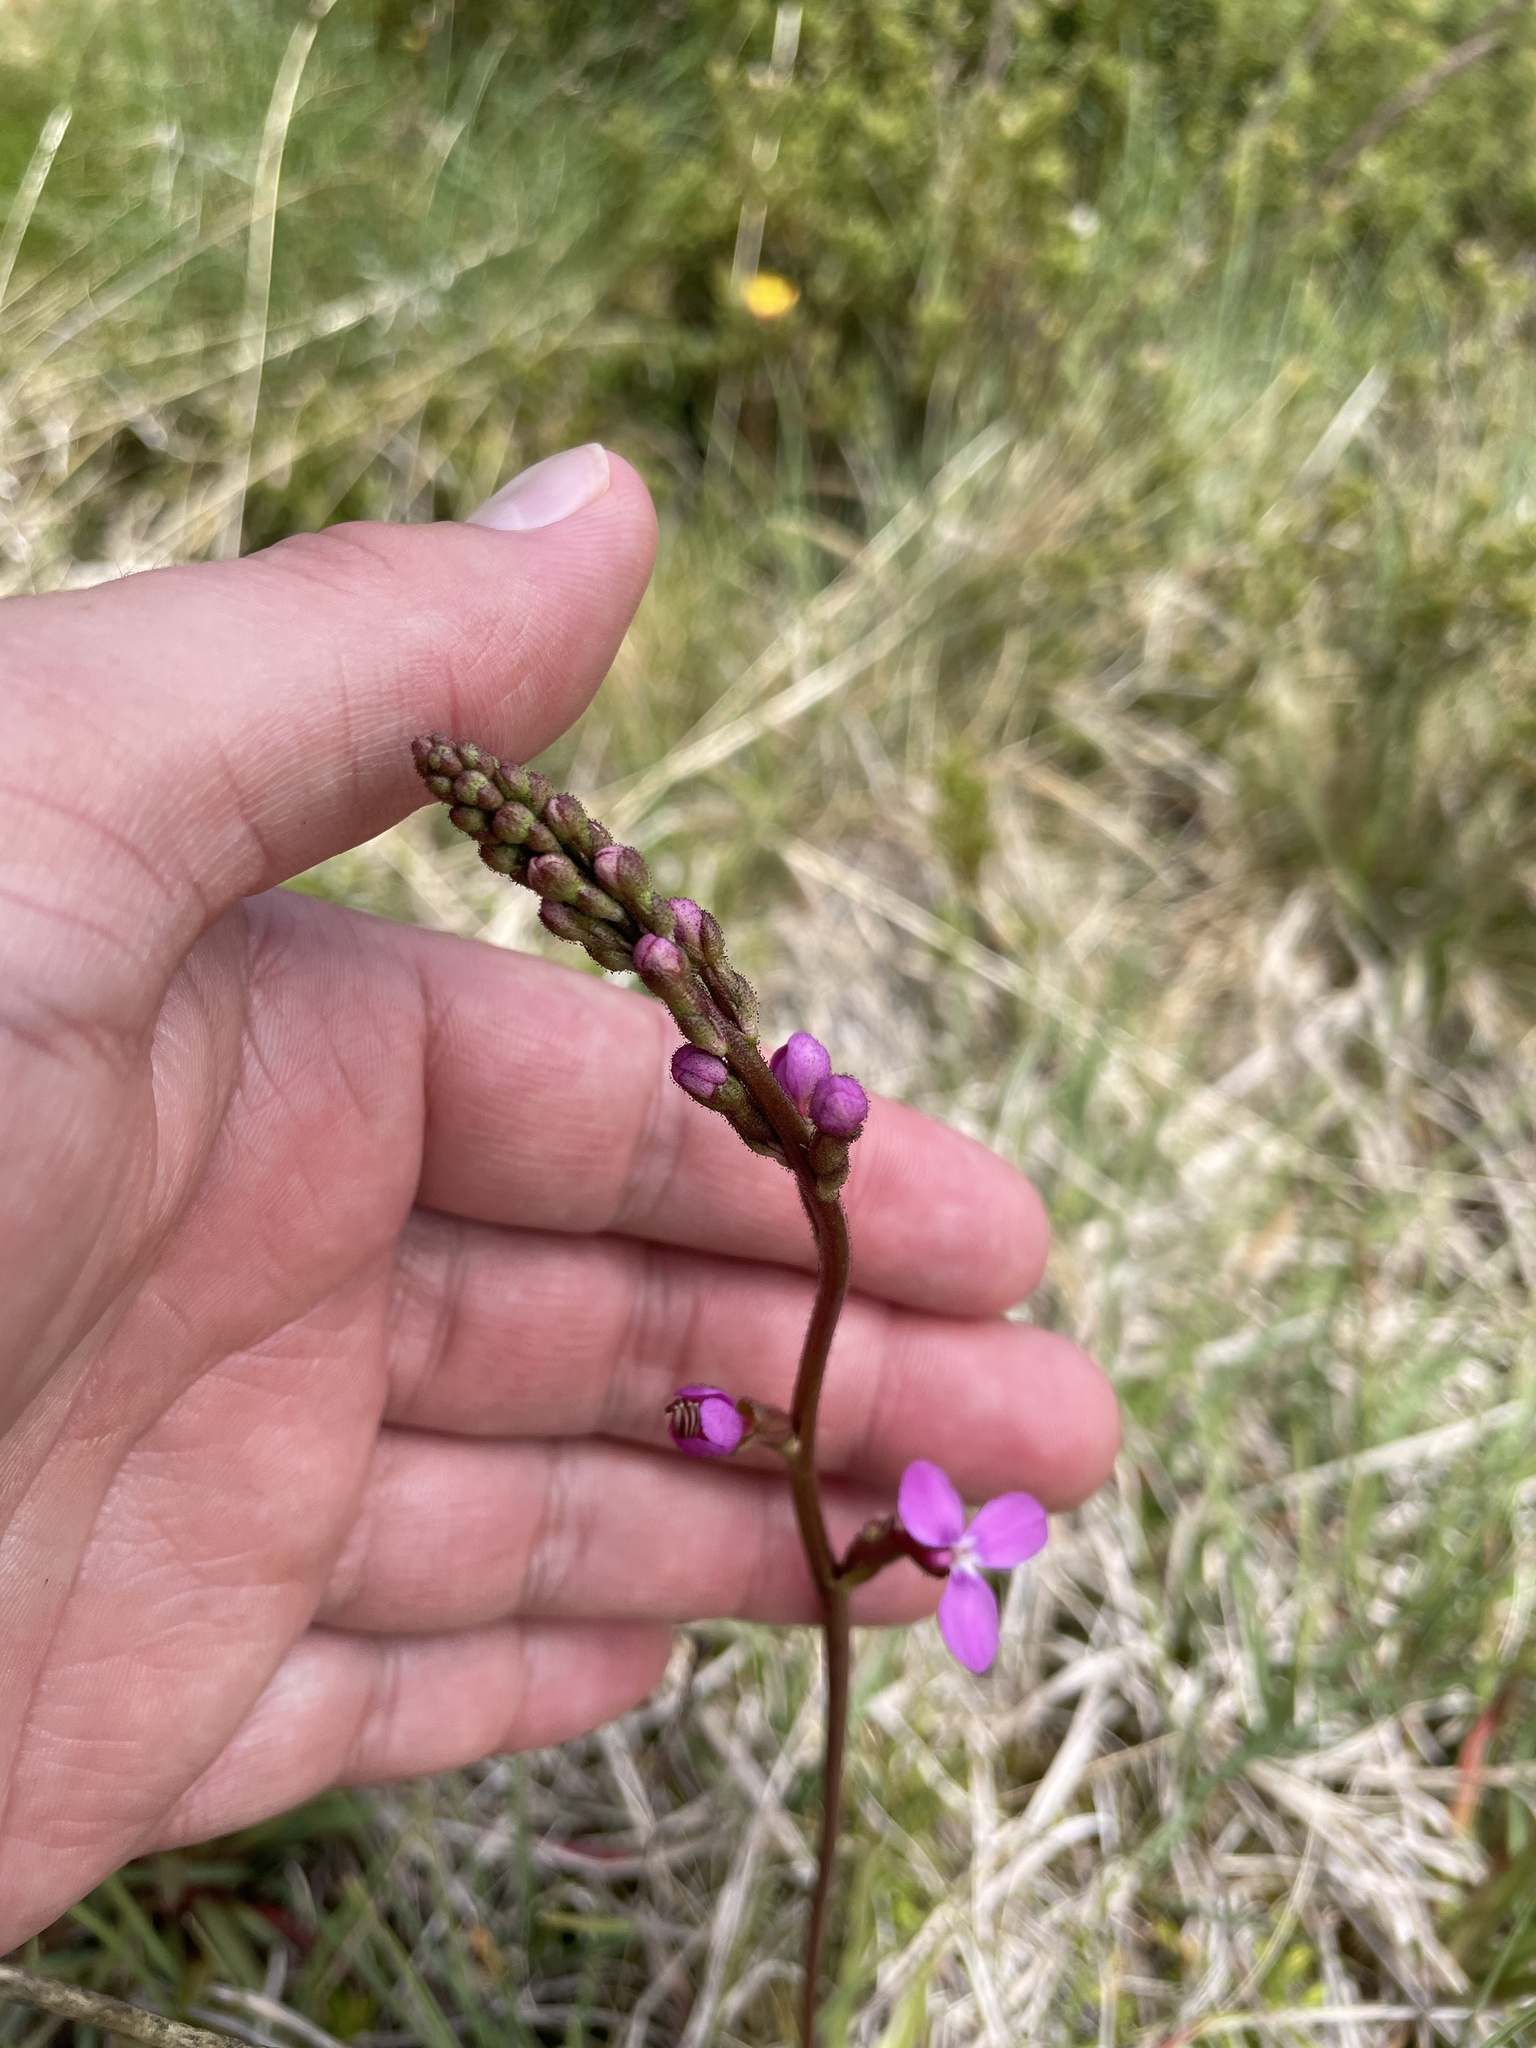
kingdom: Plantae
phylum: Tracheophyta
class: Magnoliopsida
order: Asterales
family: Stylidiaceae
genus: Stylidium
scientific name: Stylidium armeria
